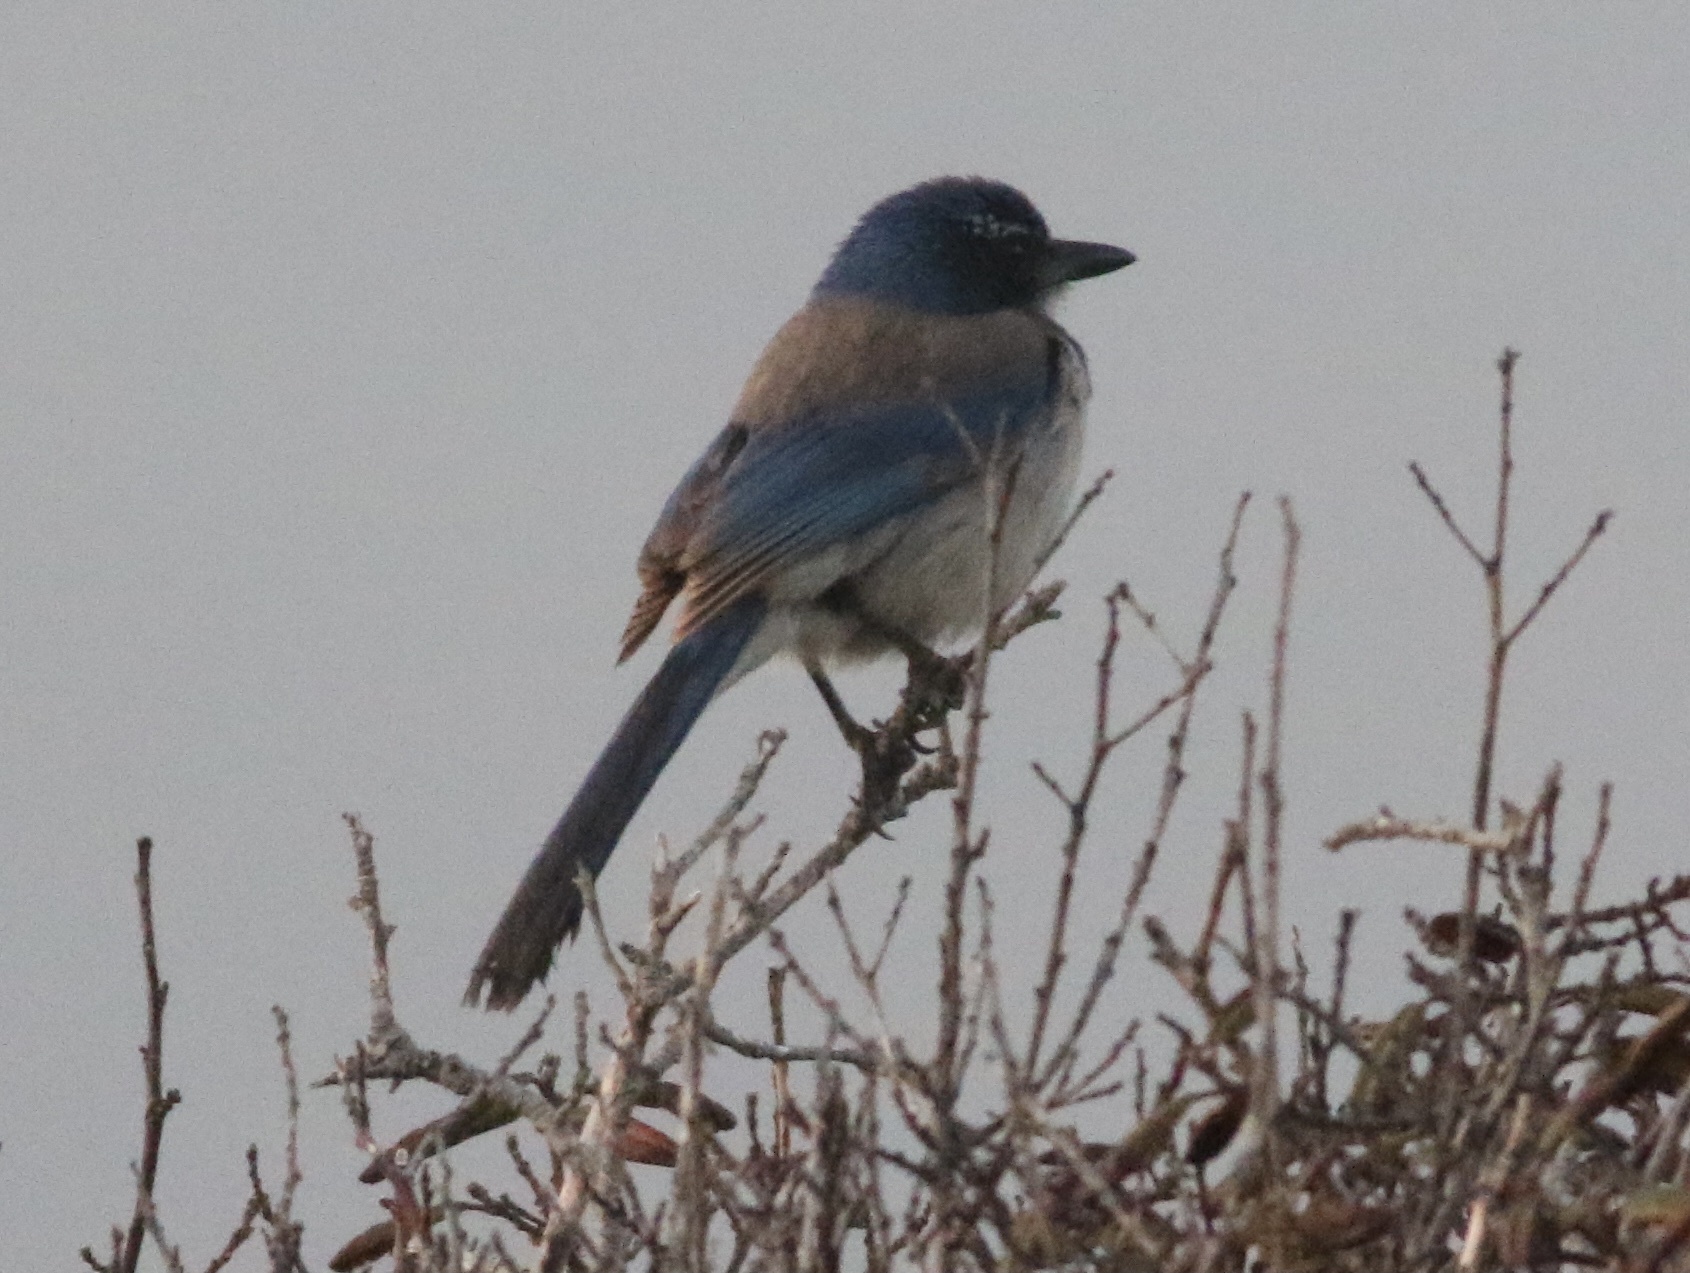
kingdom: Animalia
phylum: Chordata
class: Aves
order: Passeriformes
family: Corvidae
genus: Aphelocoma
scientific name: Aphelocoma californica
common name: California scrub-jay
